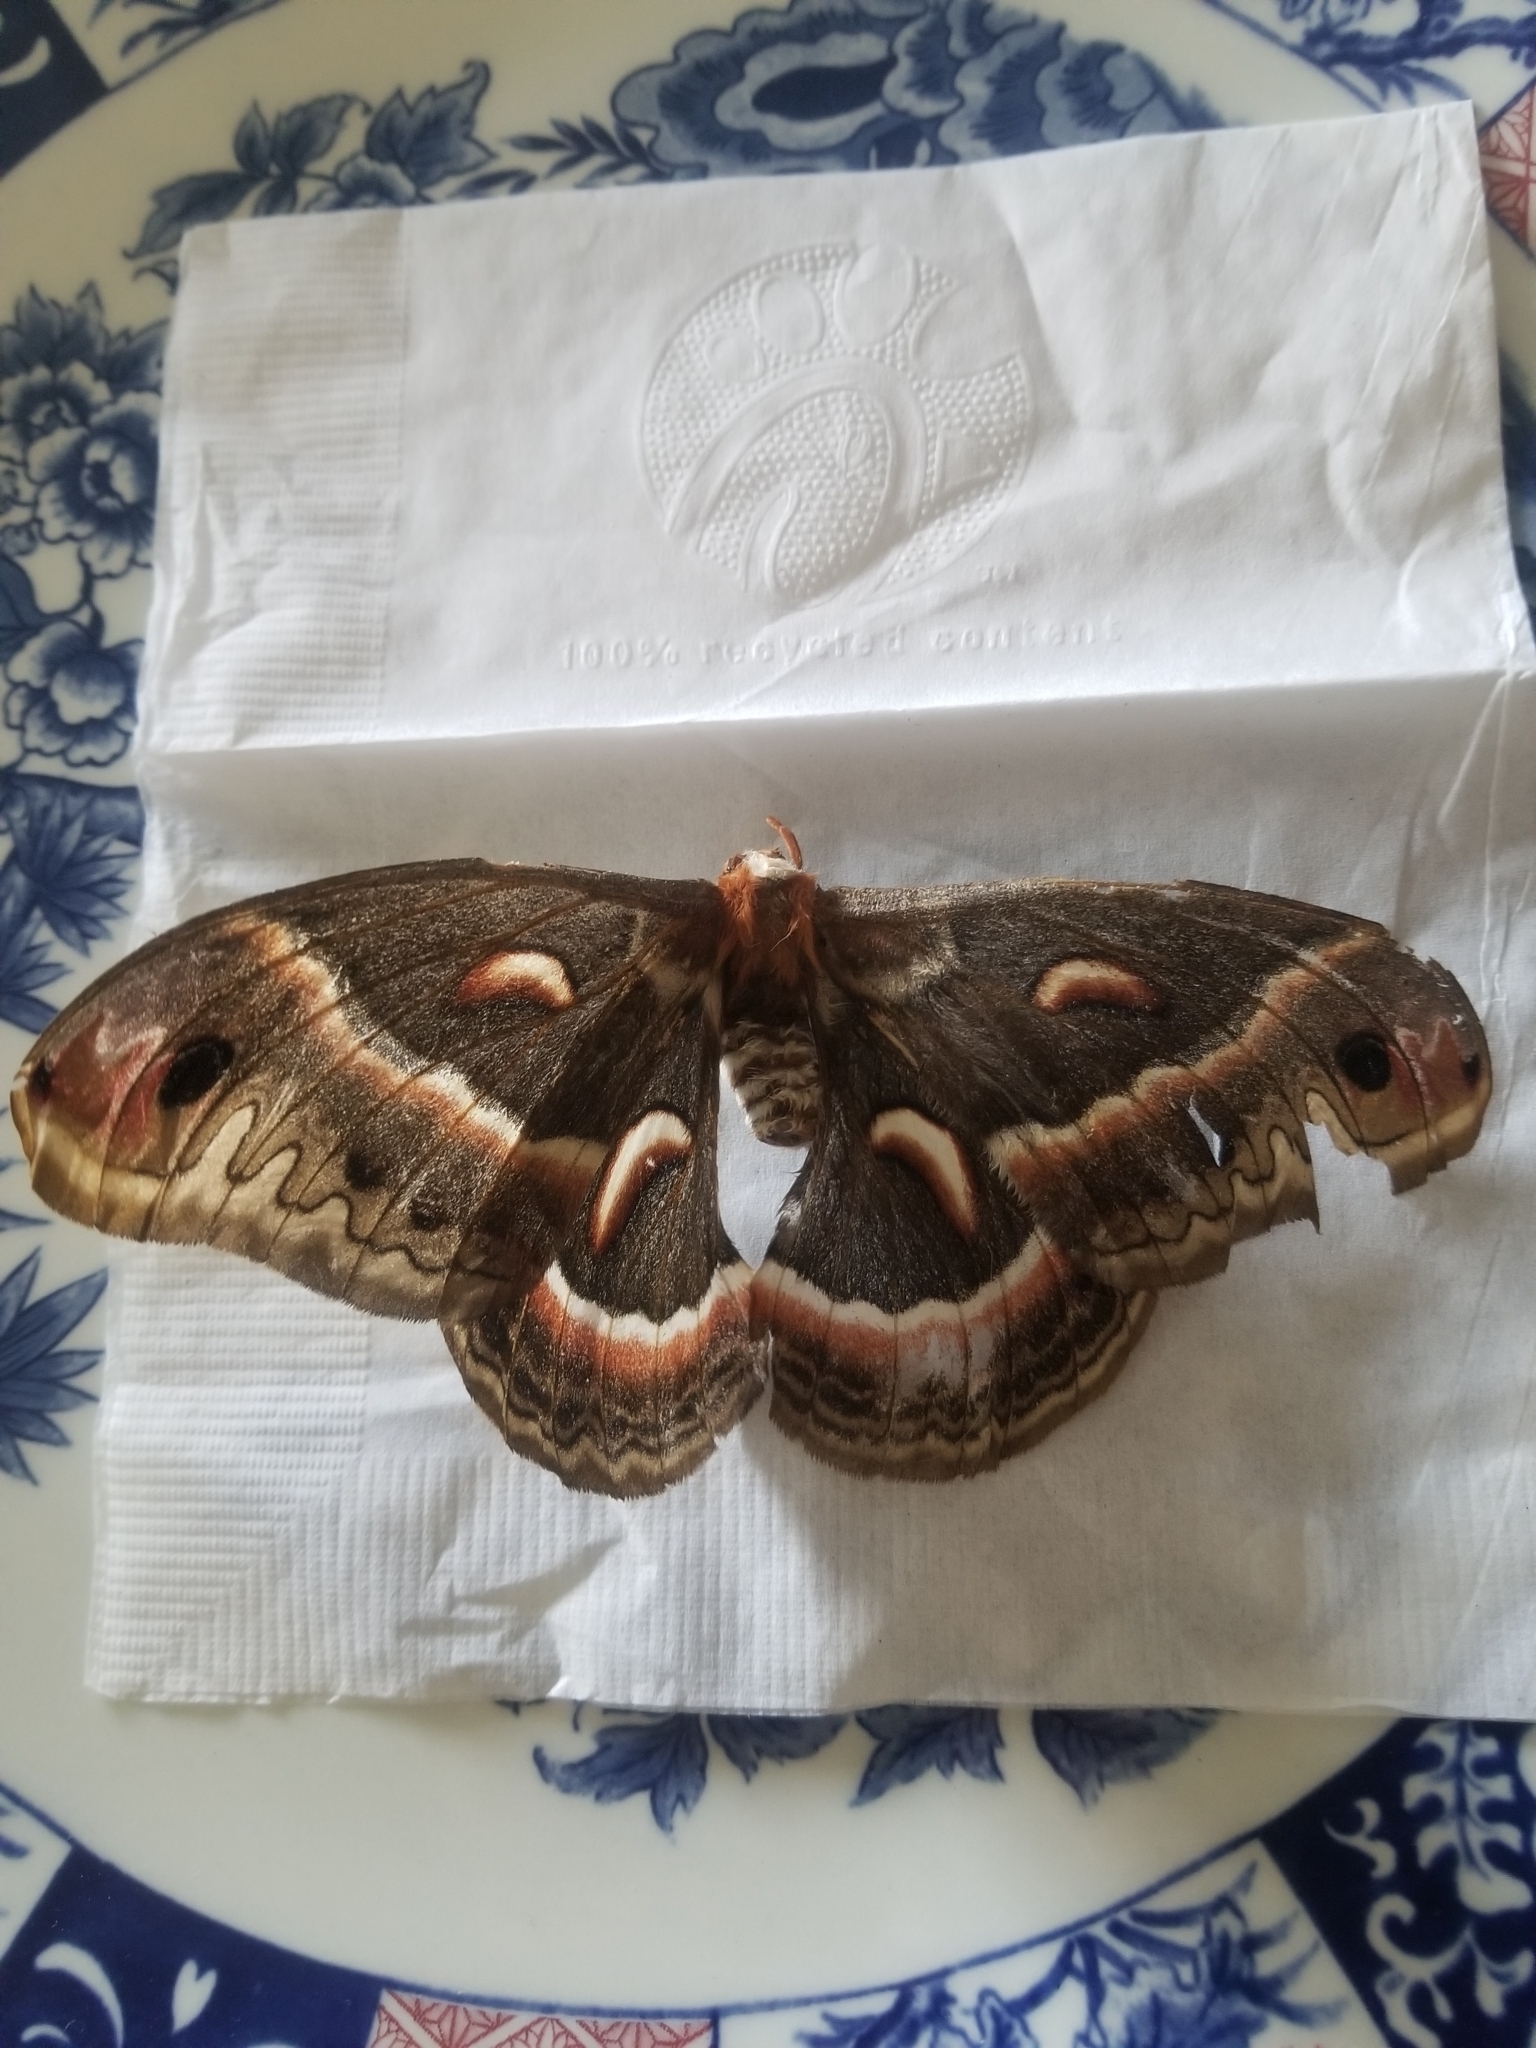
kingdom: Animalia
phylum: Arthropoda
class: Insecta
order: Lepidoptera
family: Saturniidae
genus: Hyalophora
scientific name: Hyalophora cecropia
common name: Cecropia silkmoth
